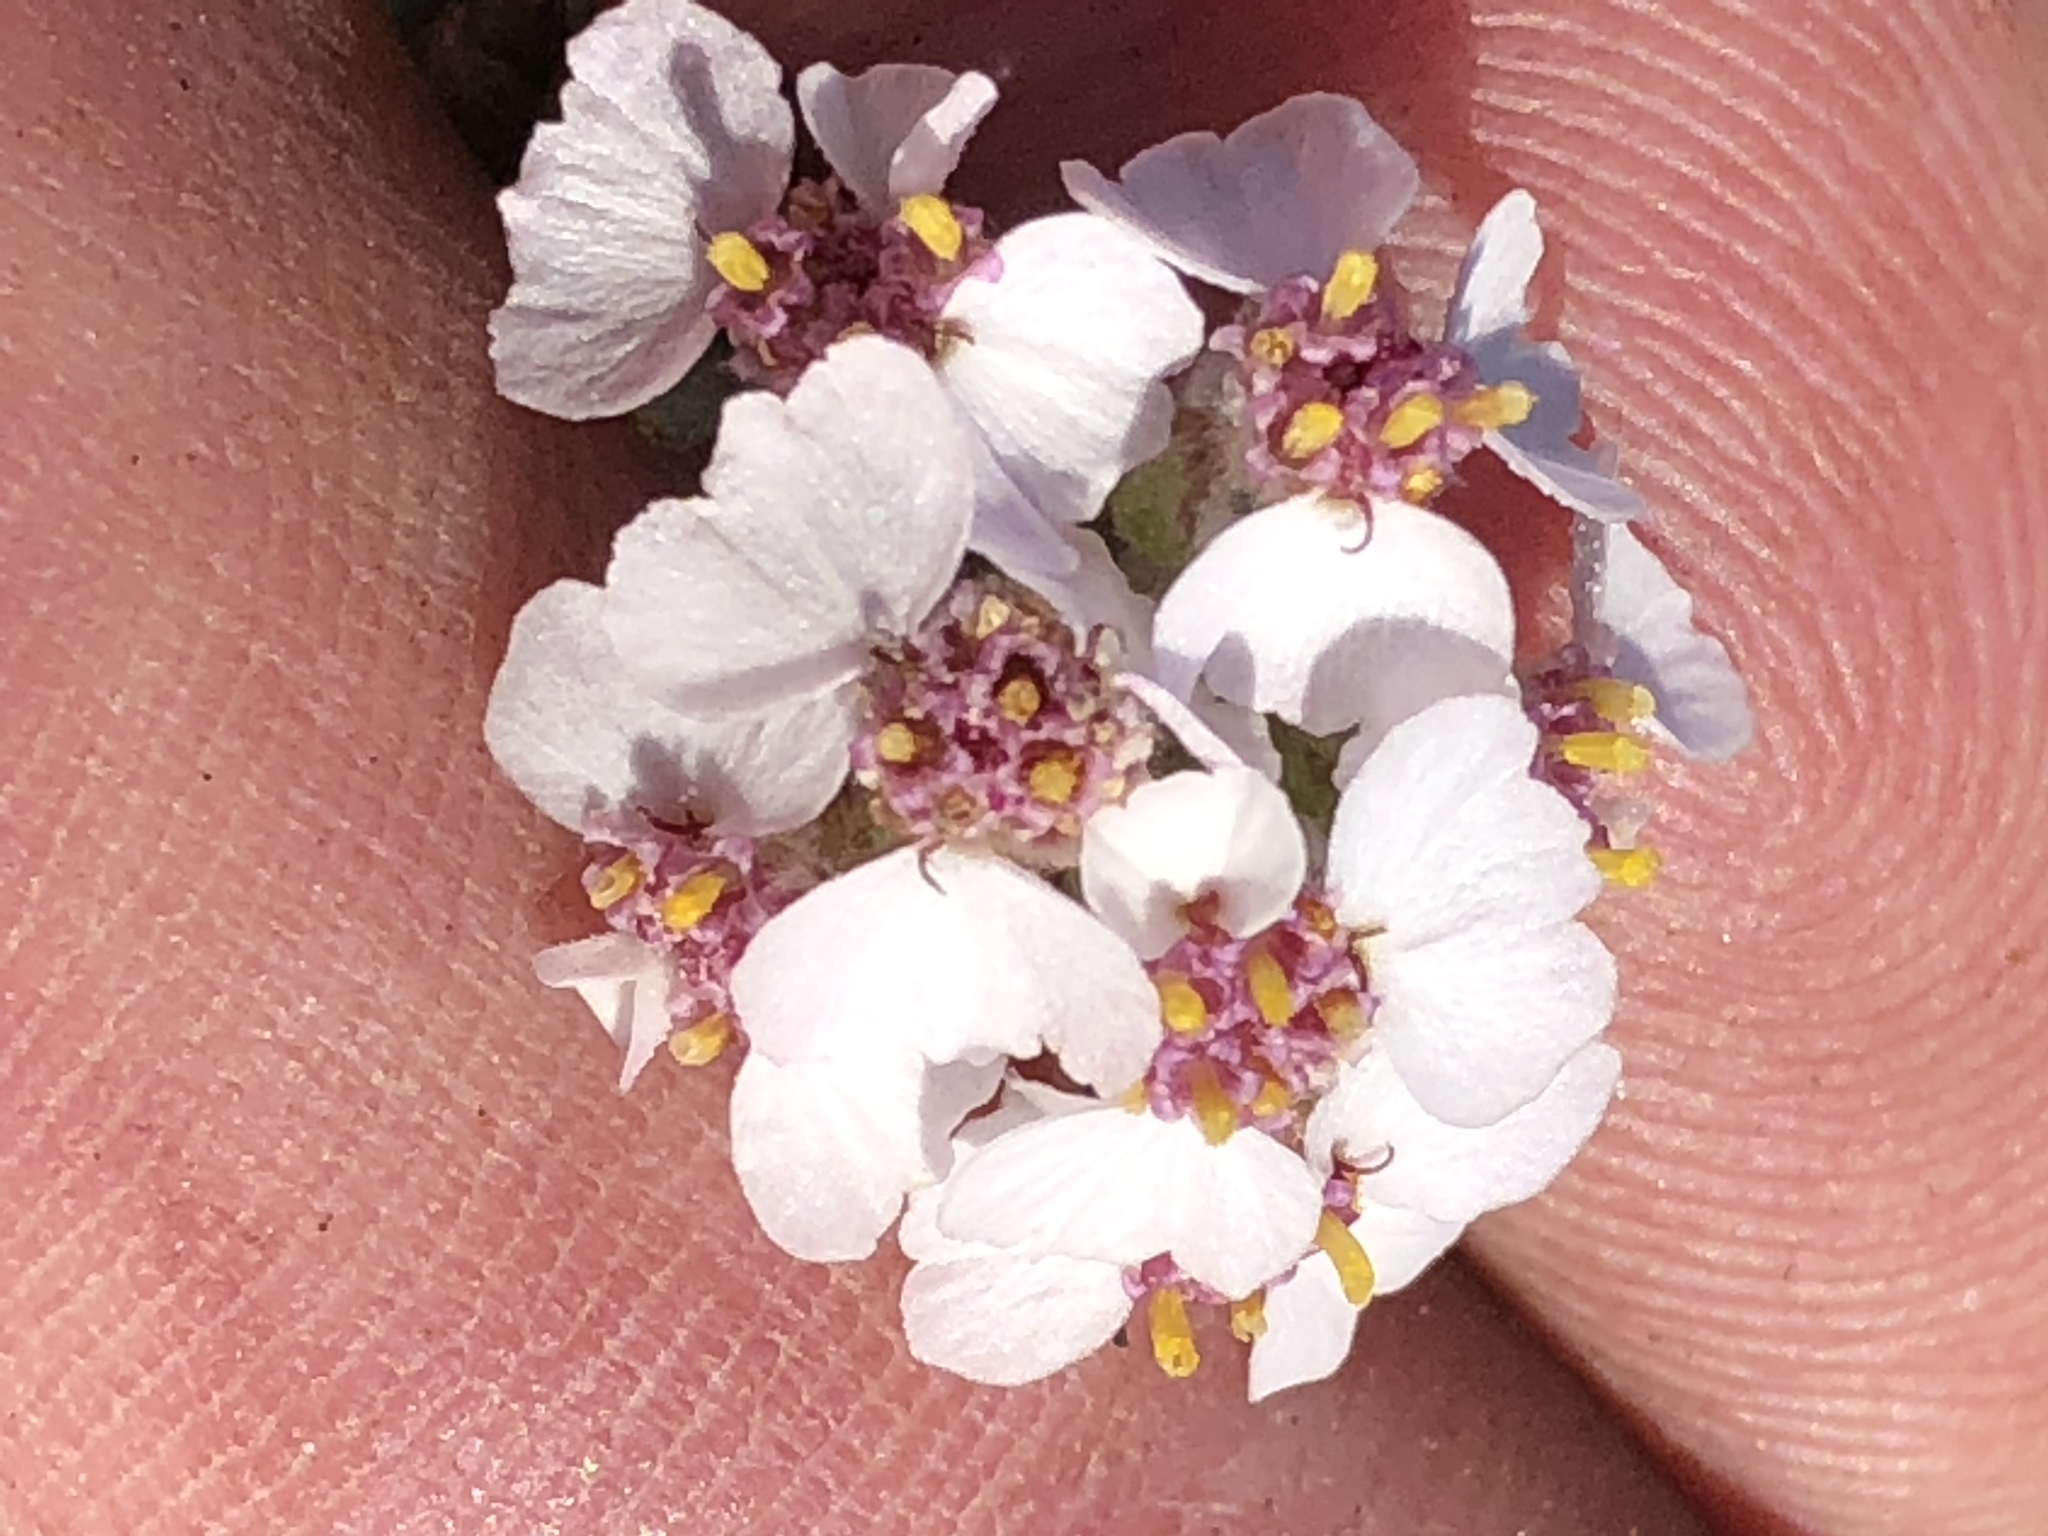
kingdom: Plantae
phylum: Tracheophyta
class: Magnoliopsida
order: Asterales
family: Asteraceae
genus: Eriocephalus
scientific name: Eriocephalus africanus
